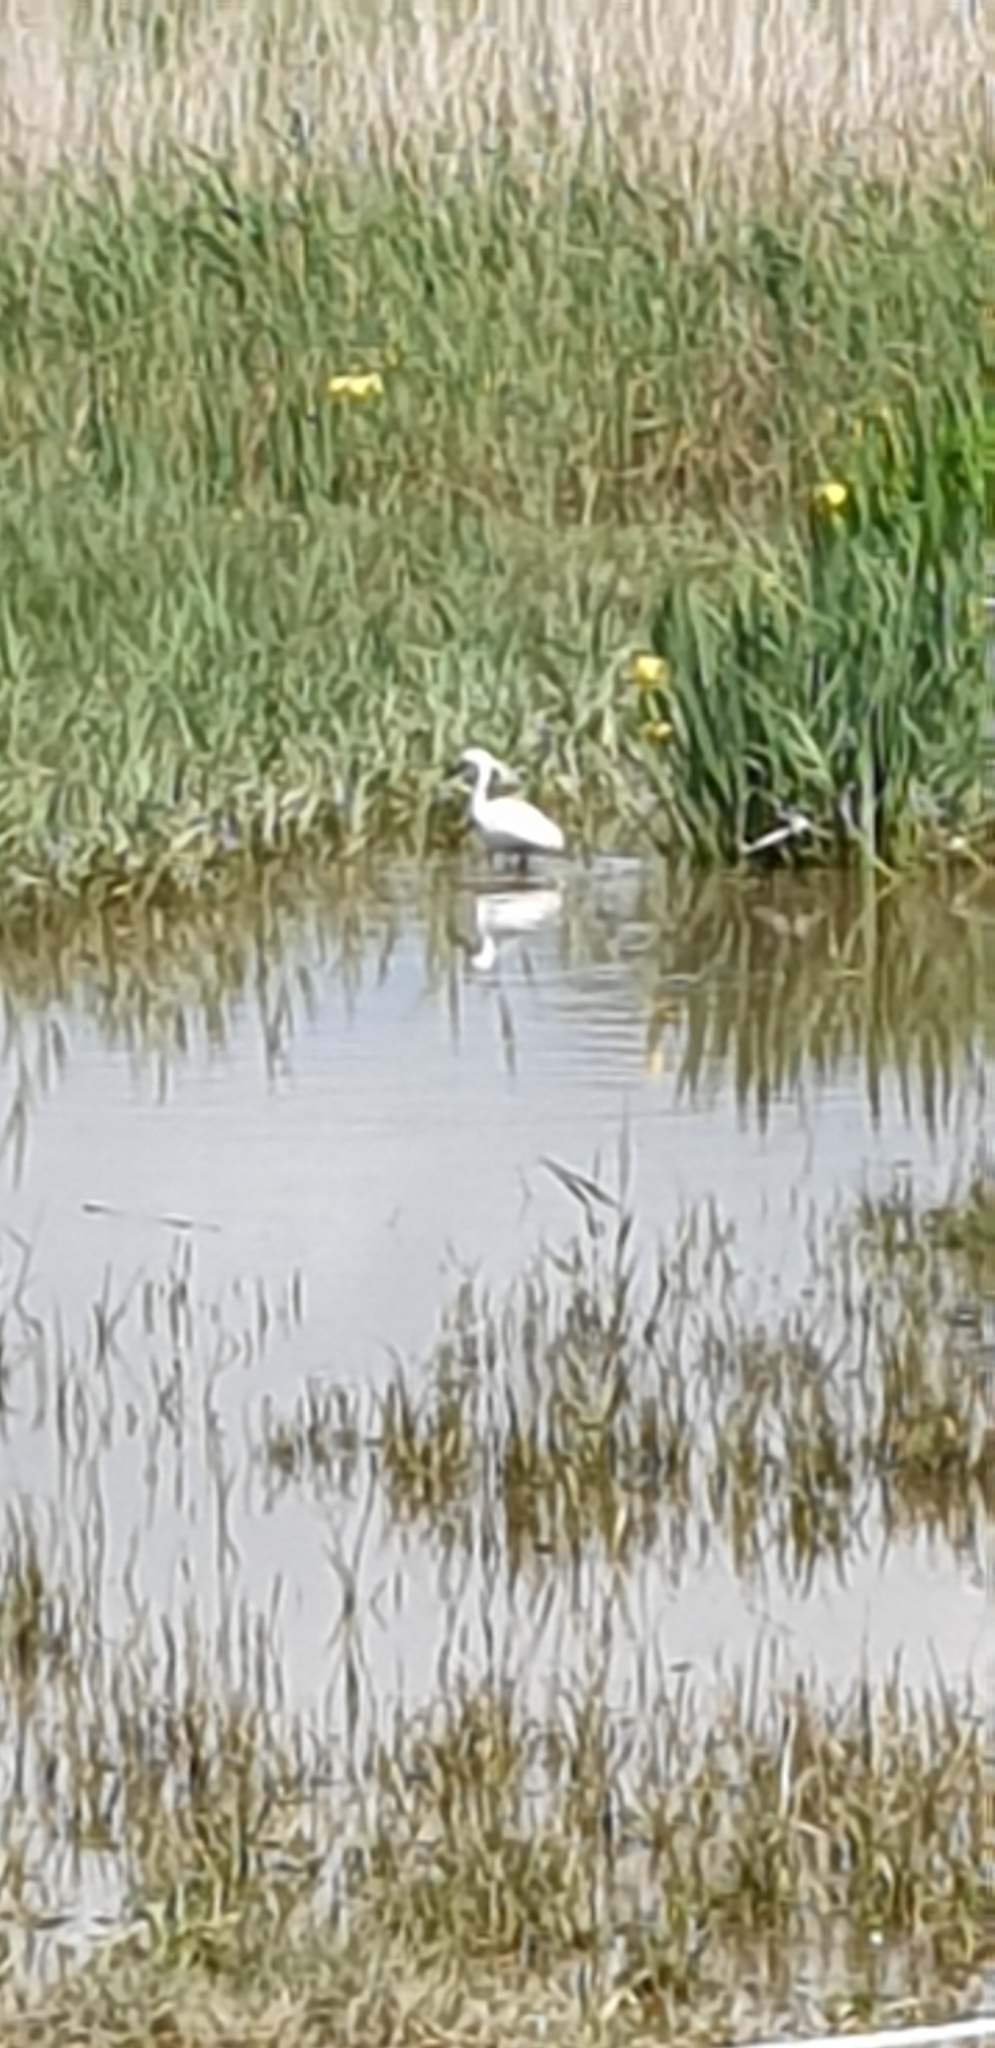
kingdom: Animalia
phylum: Chordata
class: Aves
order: Pelecaniformes
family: Ardeidae
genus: Egretta
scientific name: Egretta garzetta
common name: Little egret
